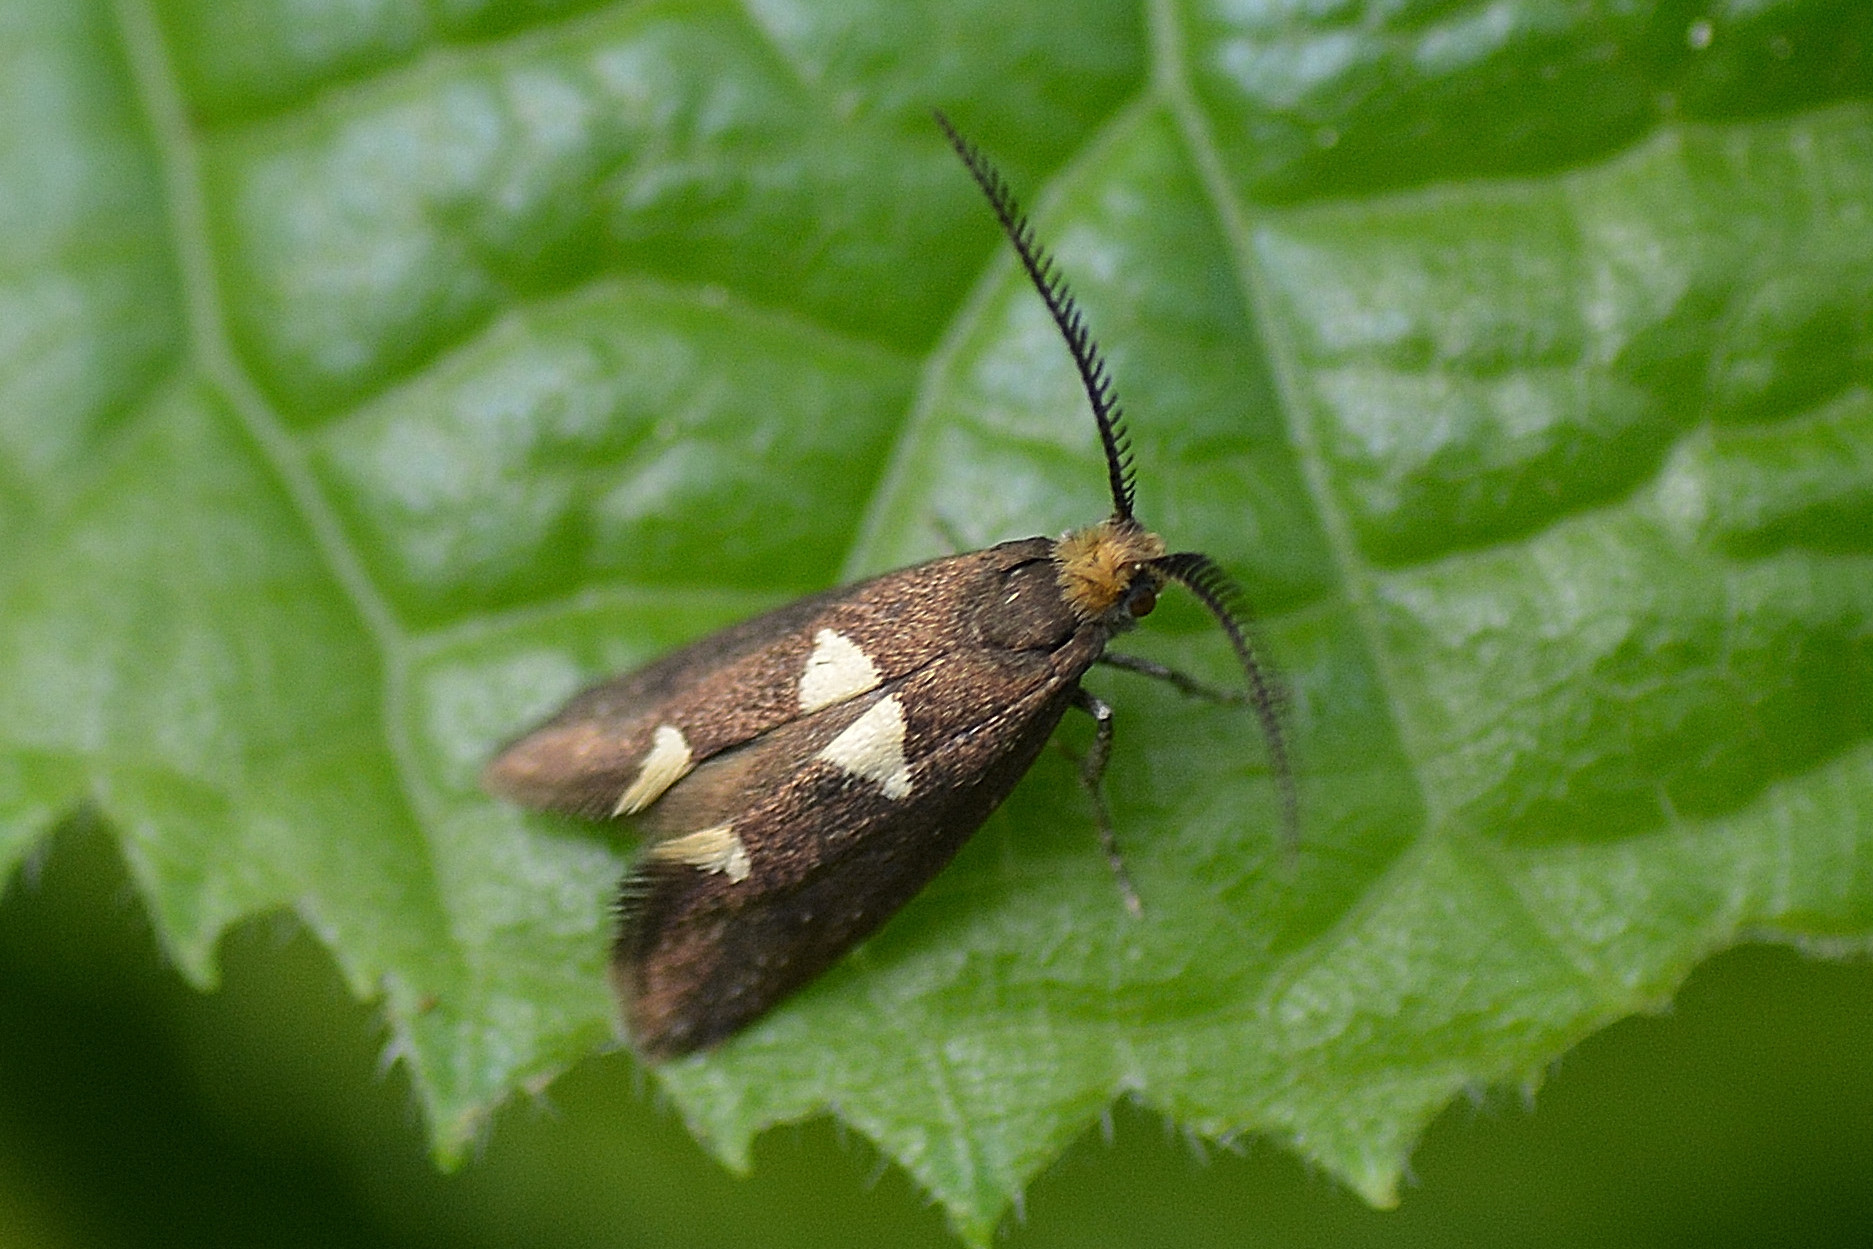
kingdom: Animalia
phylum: Arthropoda
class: Insecta
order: Lepidoptera
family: Incurvariidae
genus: Incurvaria
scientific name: Incurvaria masculella
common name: Feathered leaf-cutter
